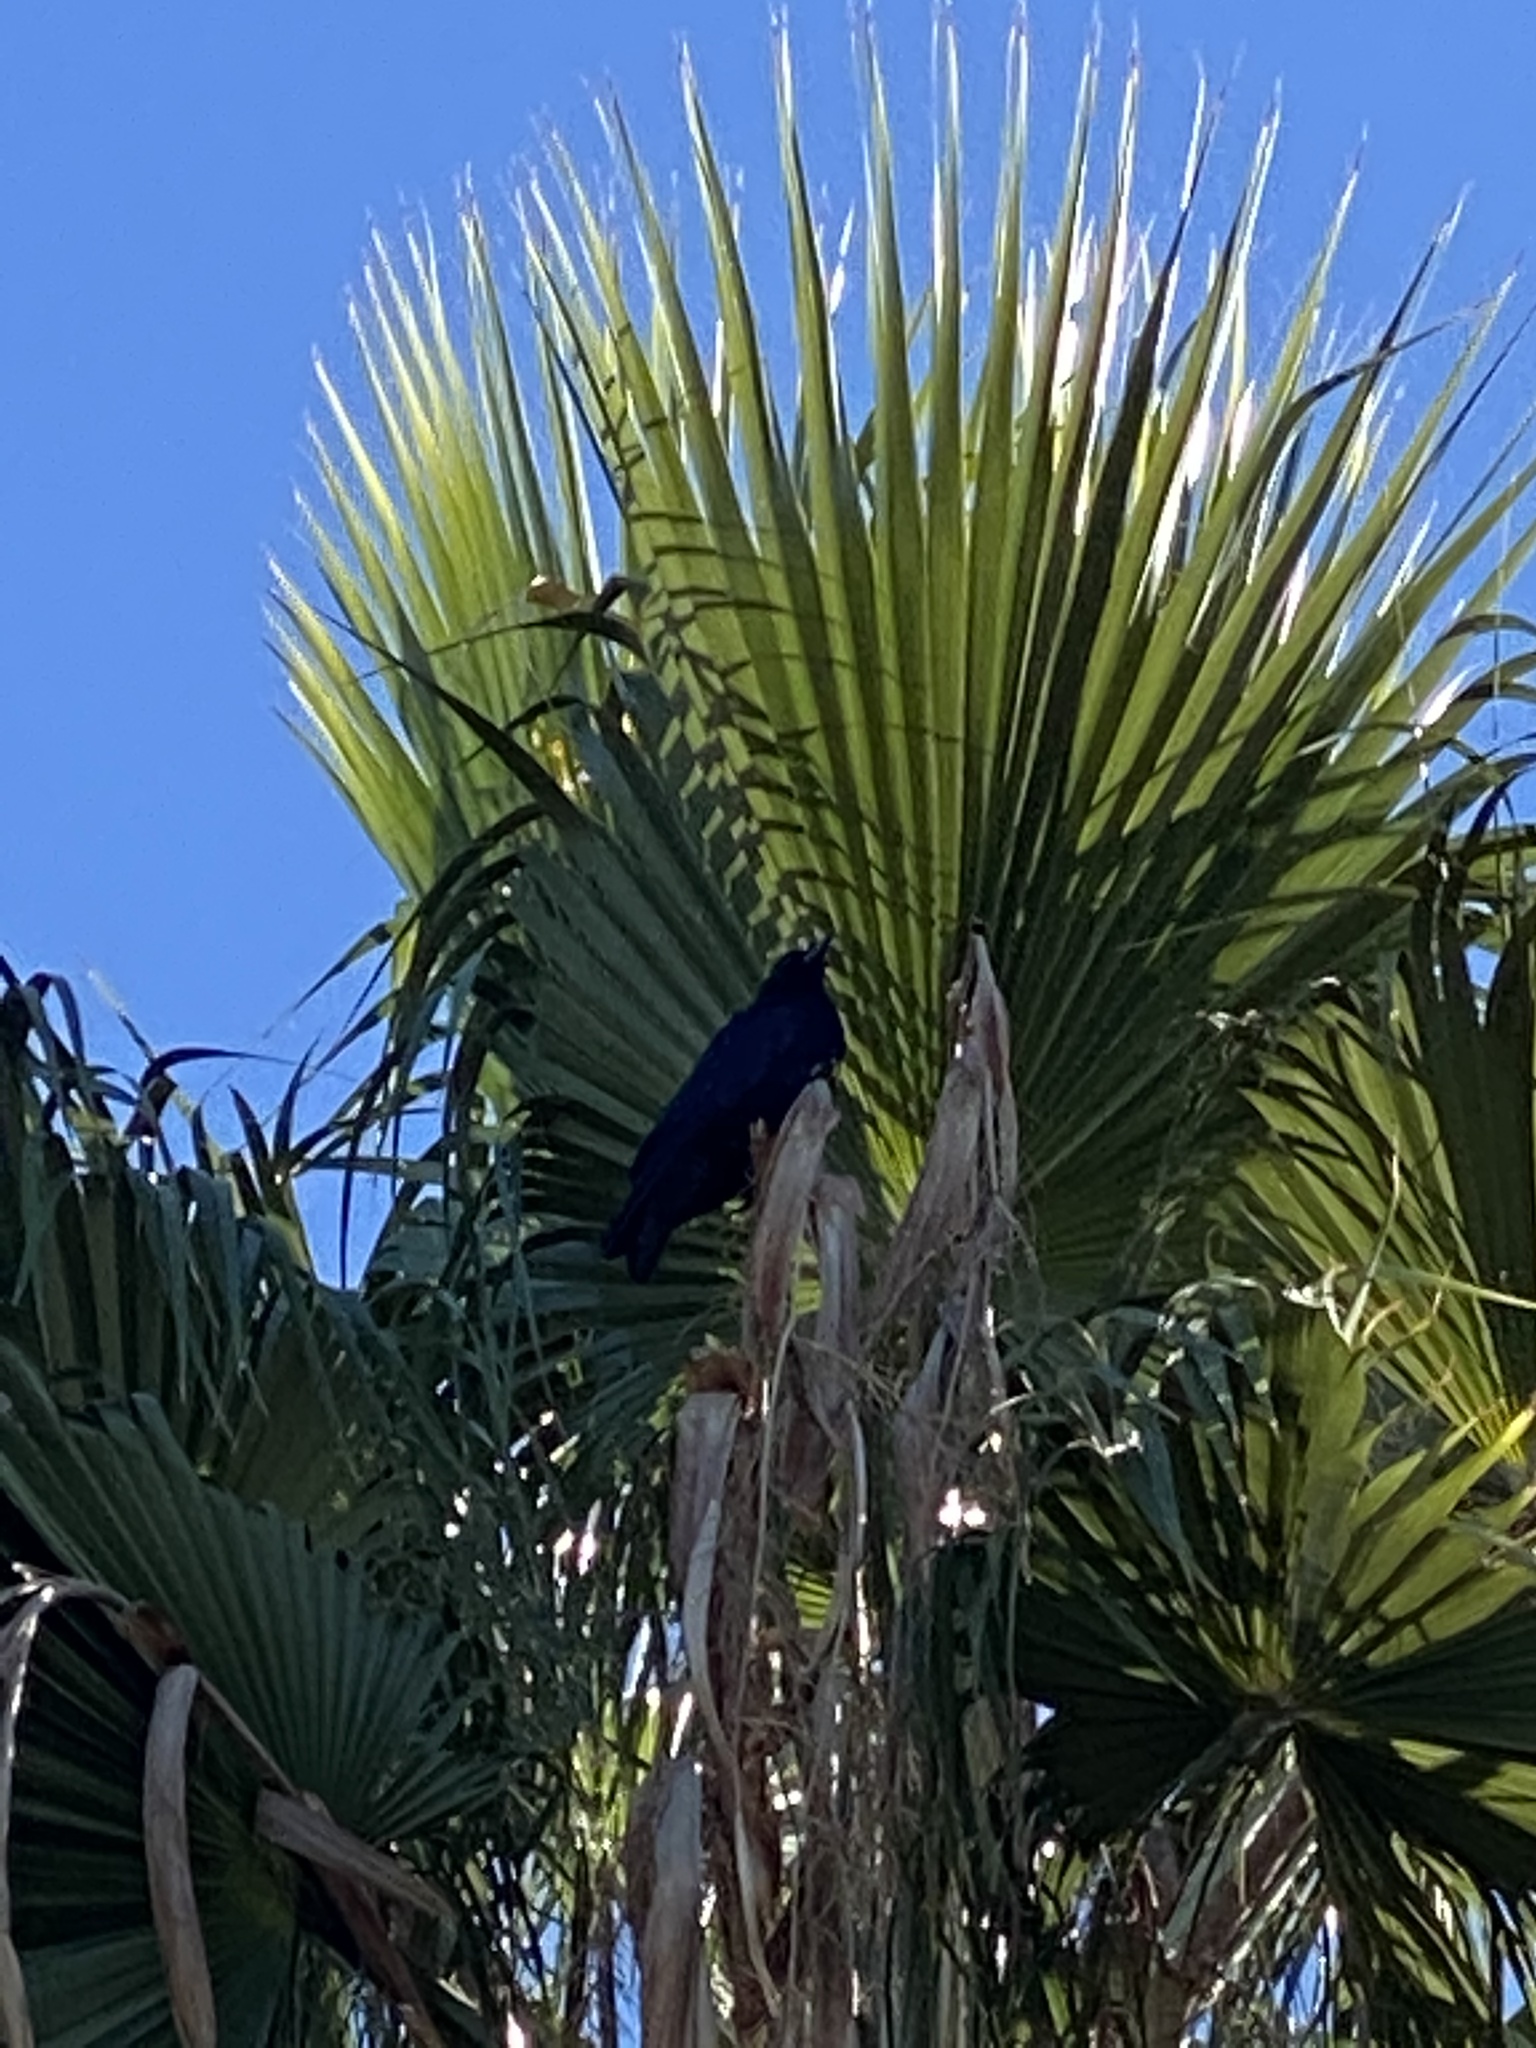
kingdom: Animalia
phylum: Chordata
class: Aves
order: Passeriformes
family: Corvidae
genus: Corvus
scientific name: Corvus brachyrhynchos
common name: American crow
